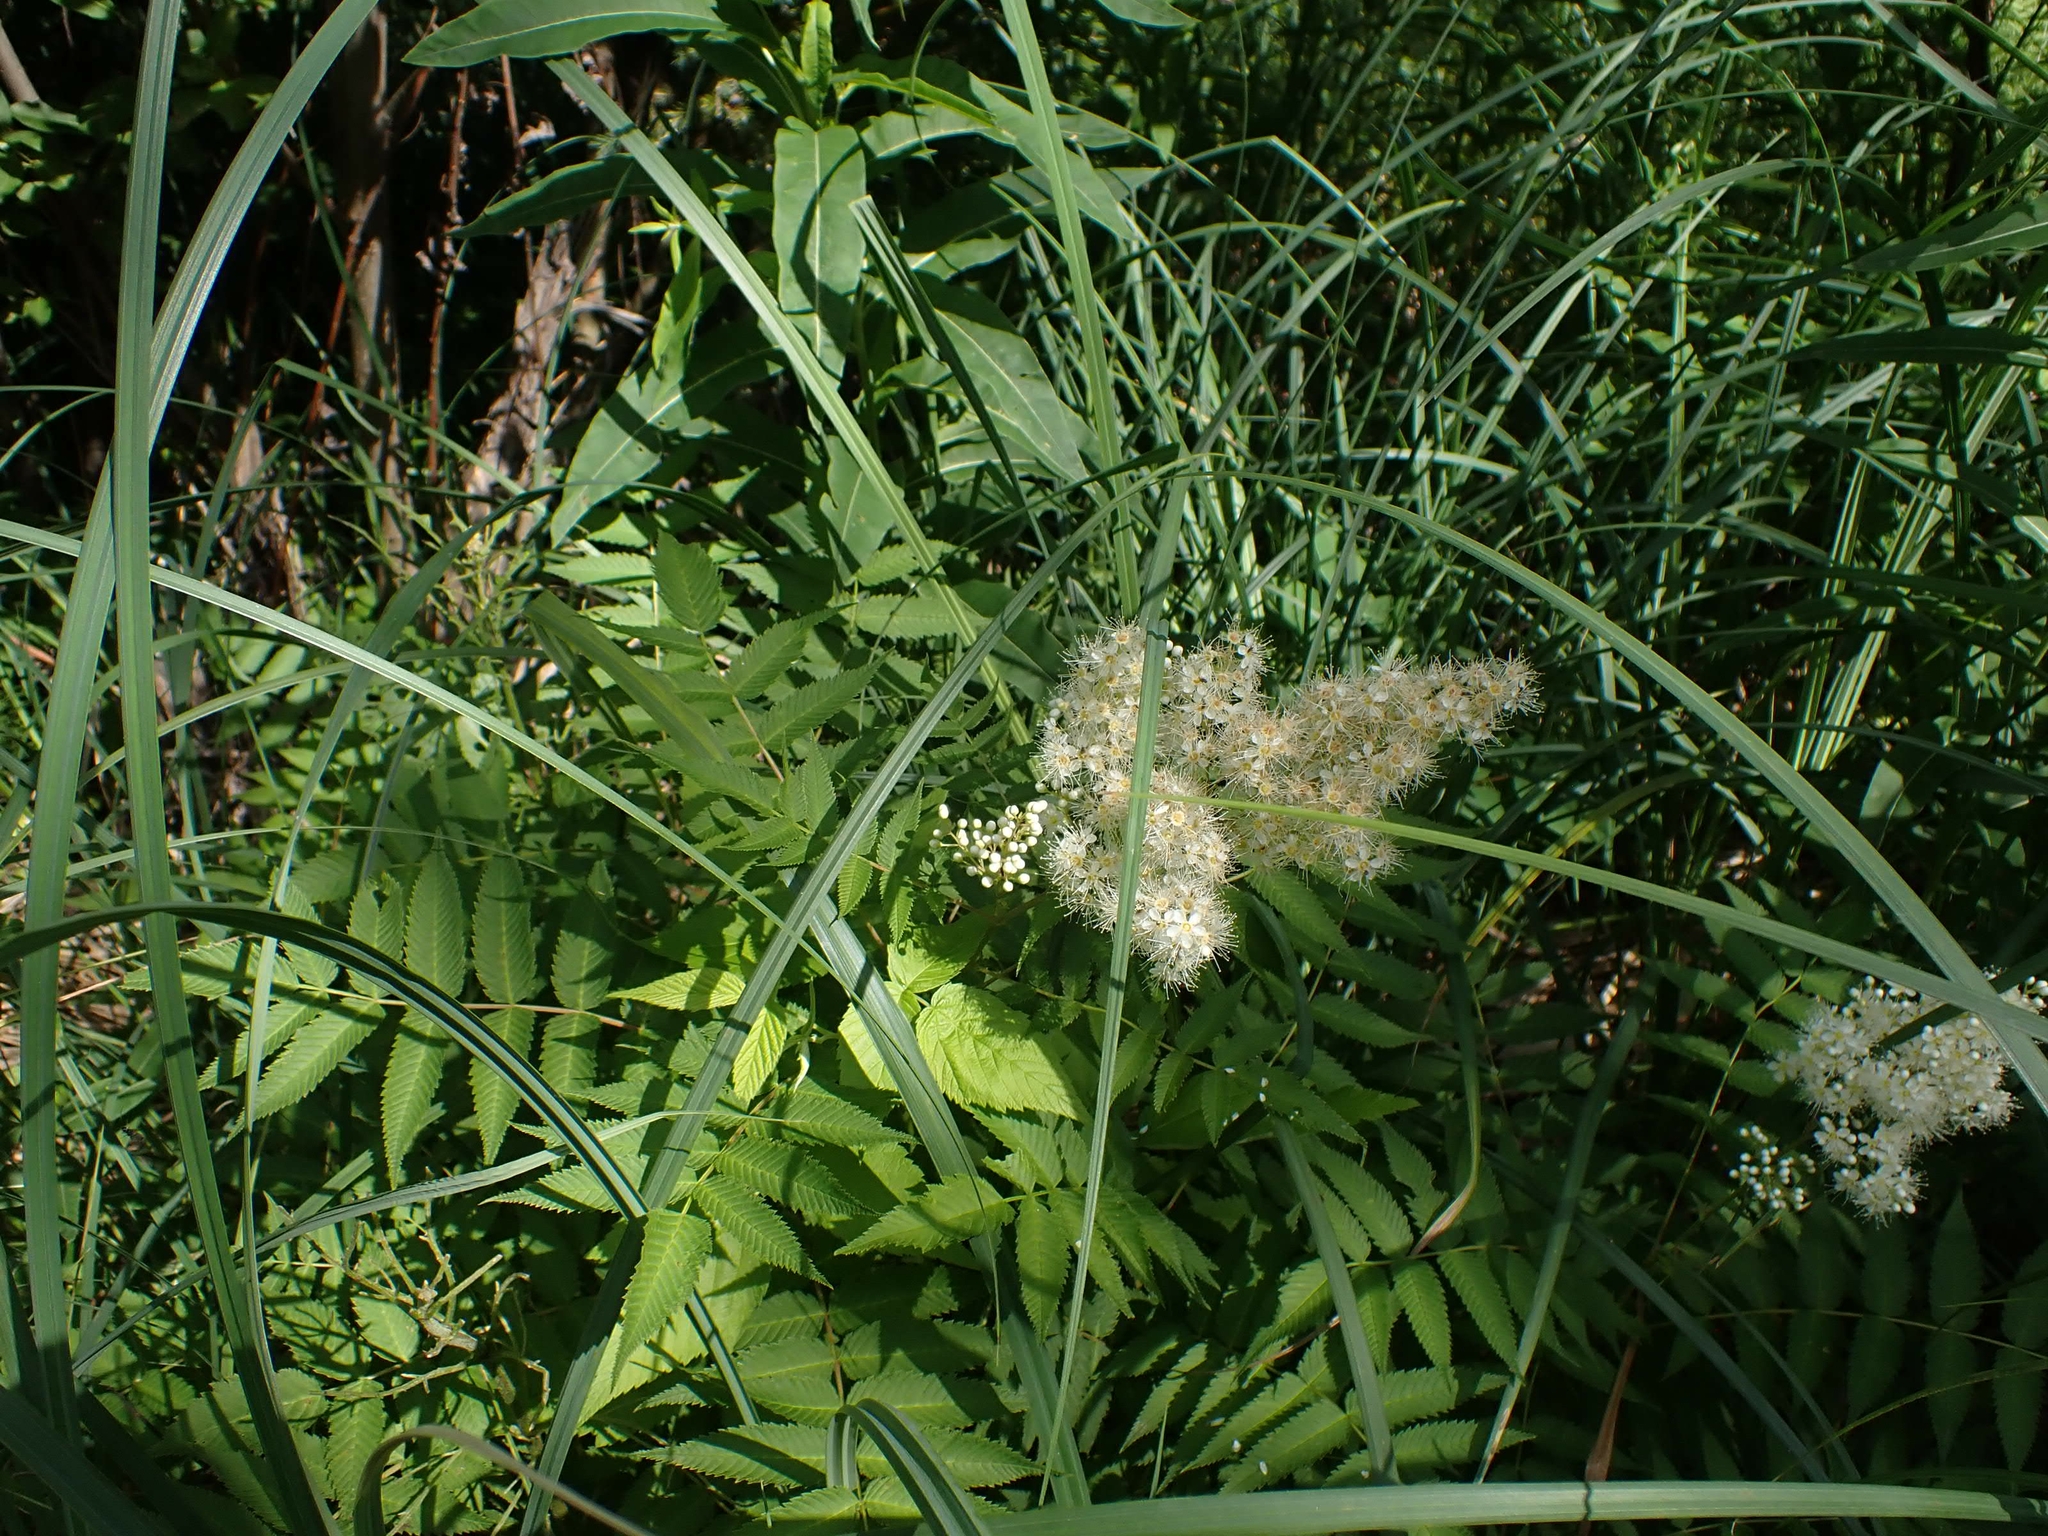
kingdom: Plantae
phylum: Tracheophyta
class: Magnoliopsida
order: Rosales
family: Rosaceae
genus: Spiraea
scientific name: Spiraea alba
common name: Pale bridewort
